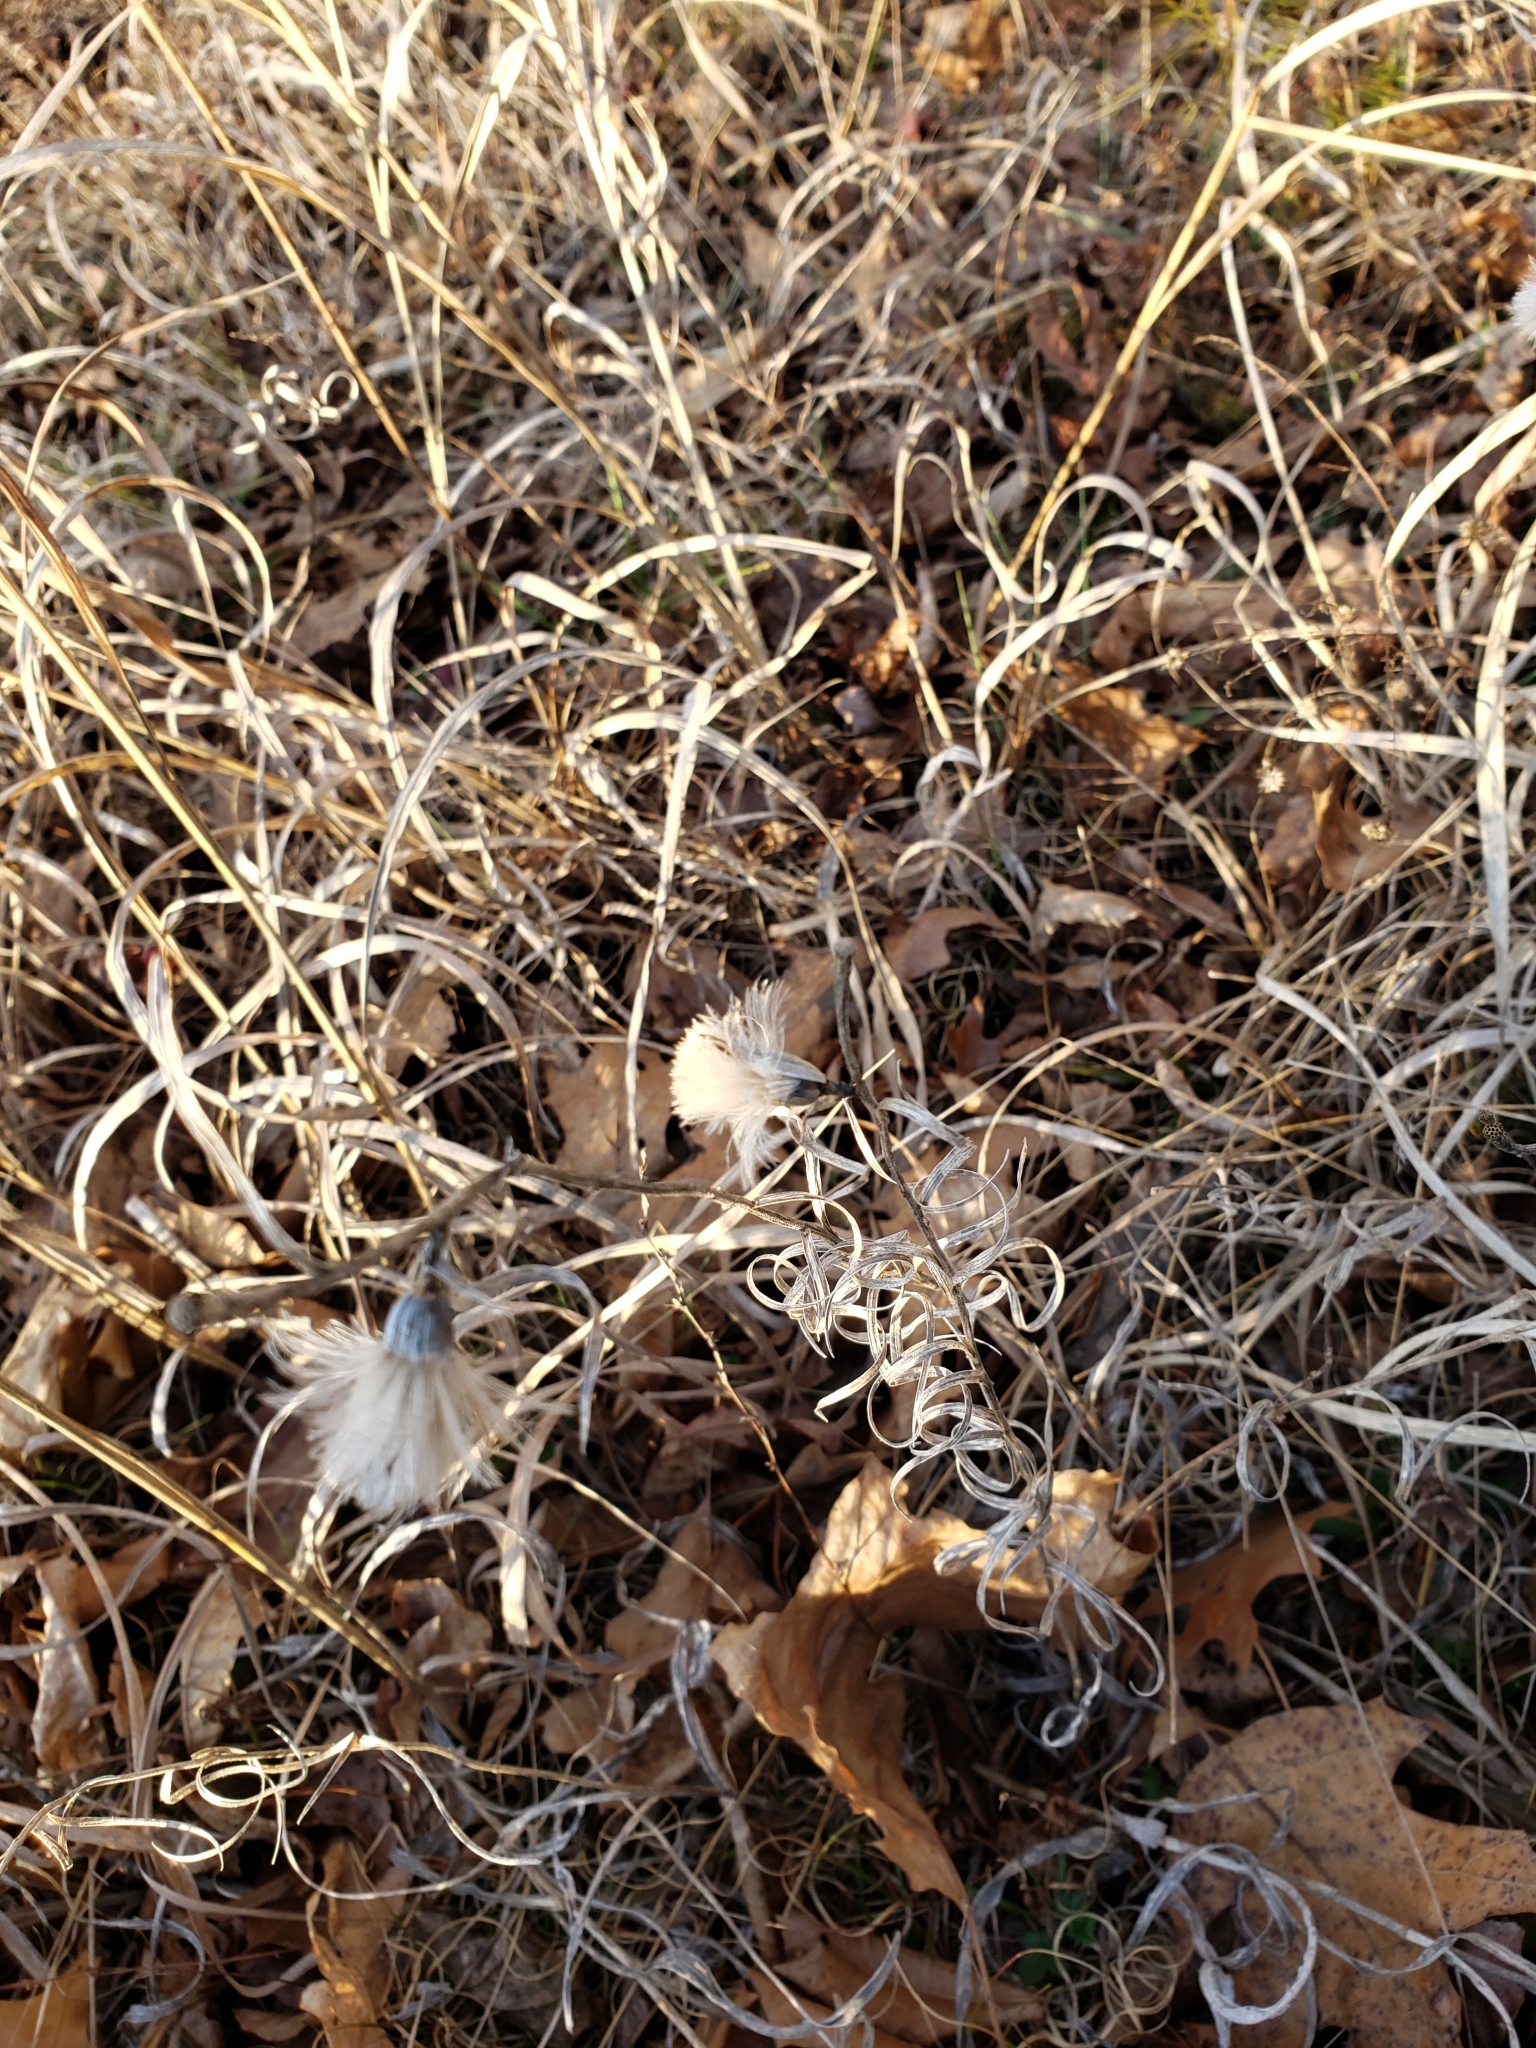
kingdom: Plantae
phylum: Tracheophyta
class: Magnoliopsida
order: Asterales
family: Asteraceae
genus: Liatris
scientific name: Liatris squarrosa
